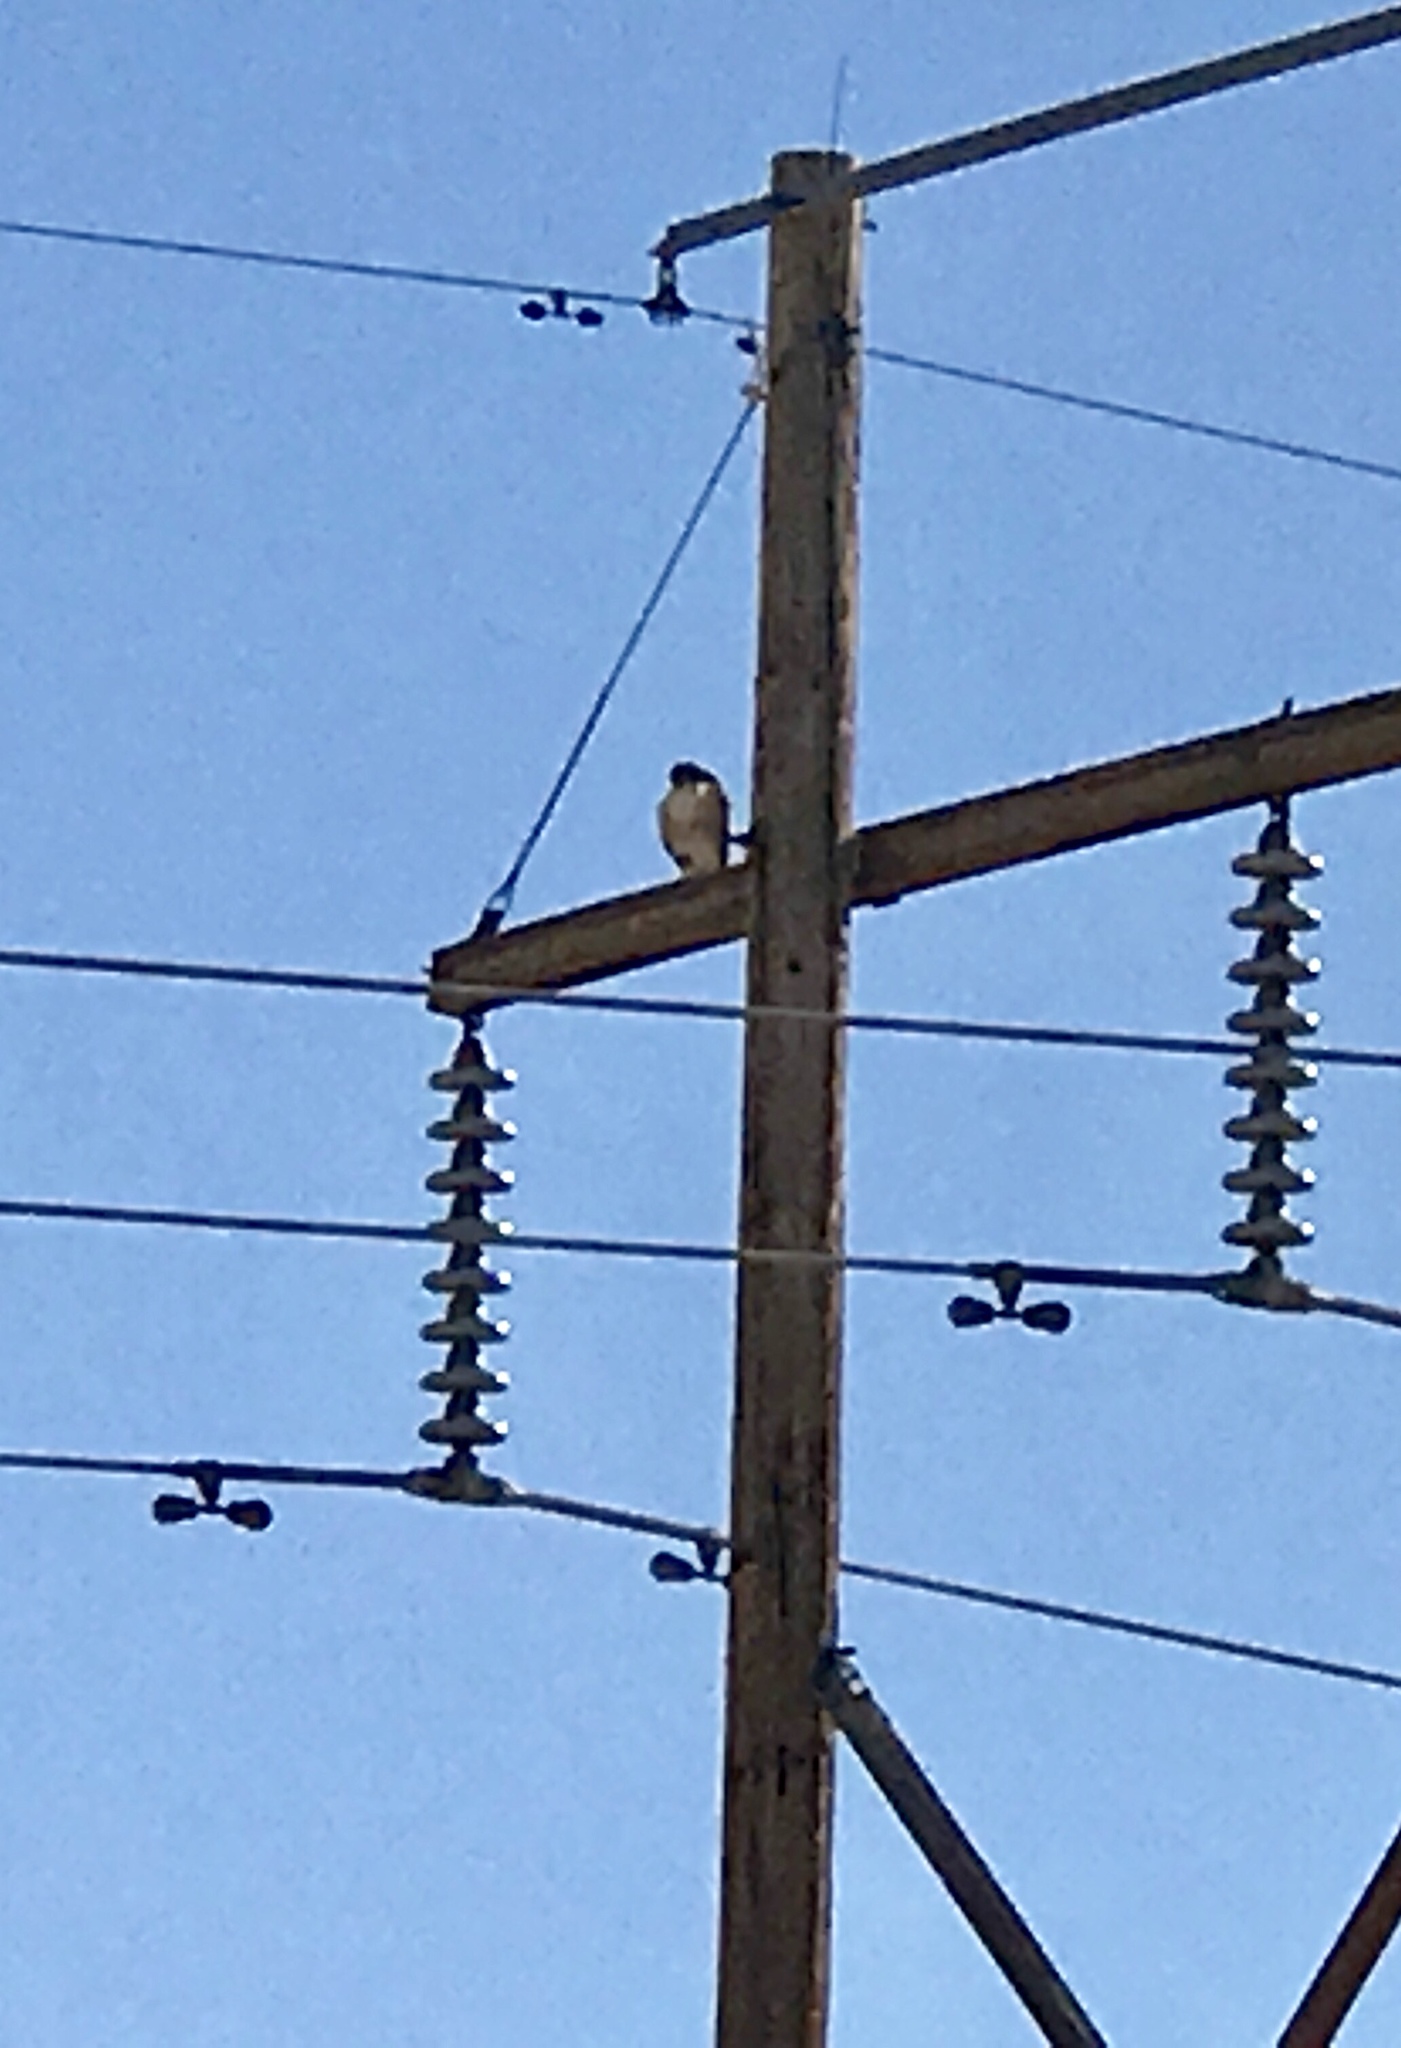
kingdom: Animalia
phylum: Chordata
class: Aves
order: Accipitriformes
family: Accipitridae
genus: Buteo
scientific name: Buteo jamaicensis
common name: Red-tailed hawk
